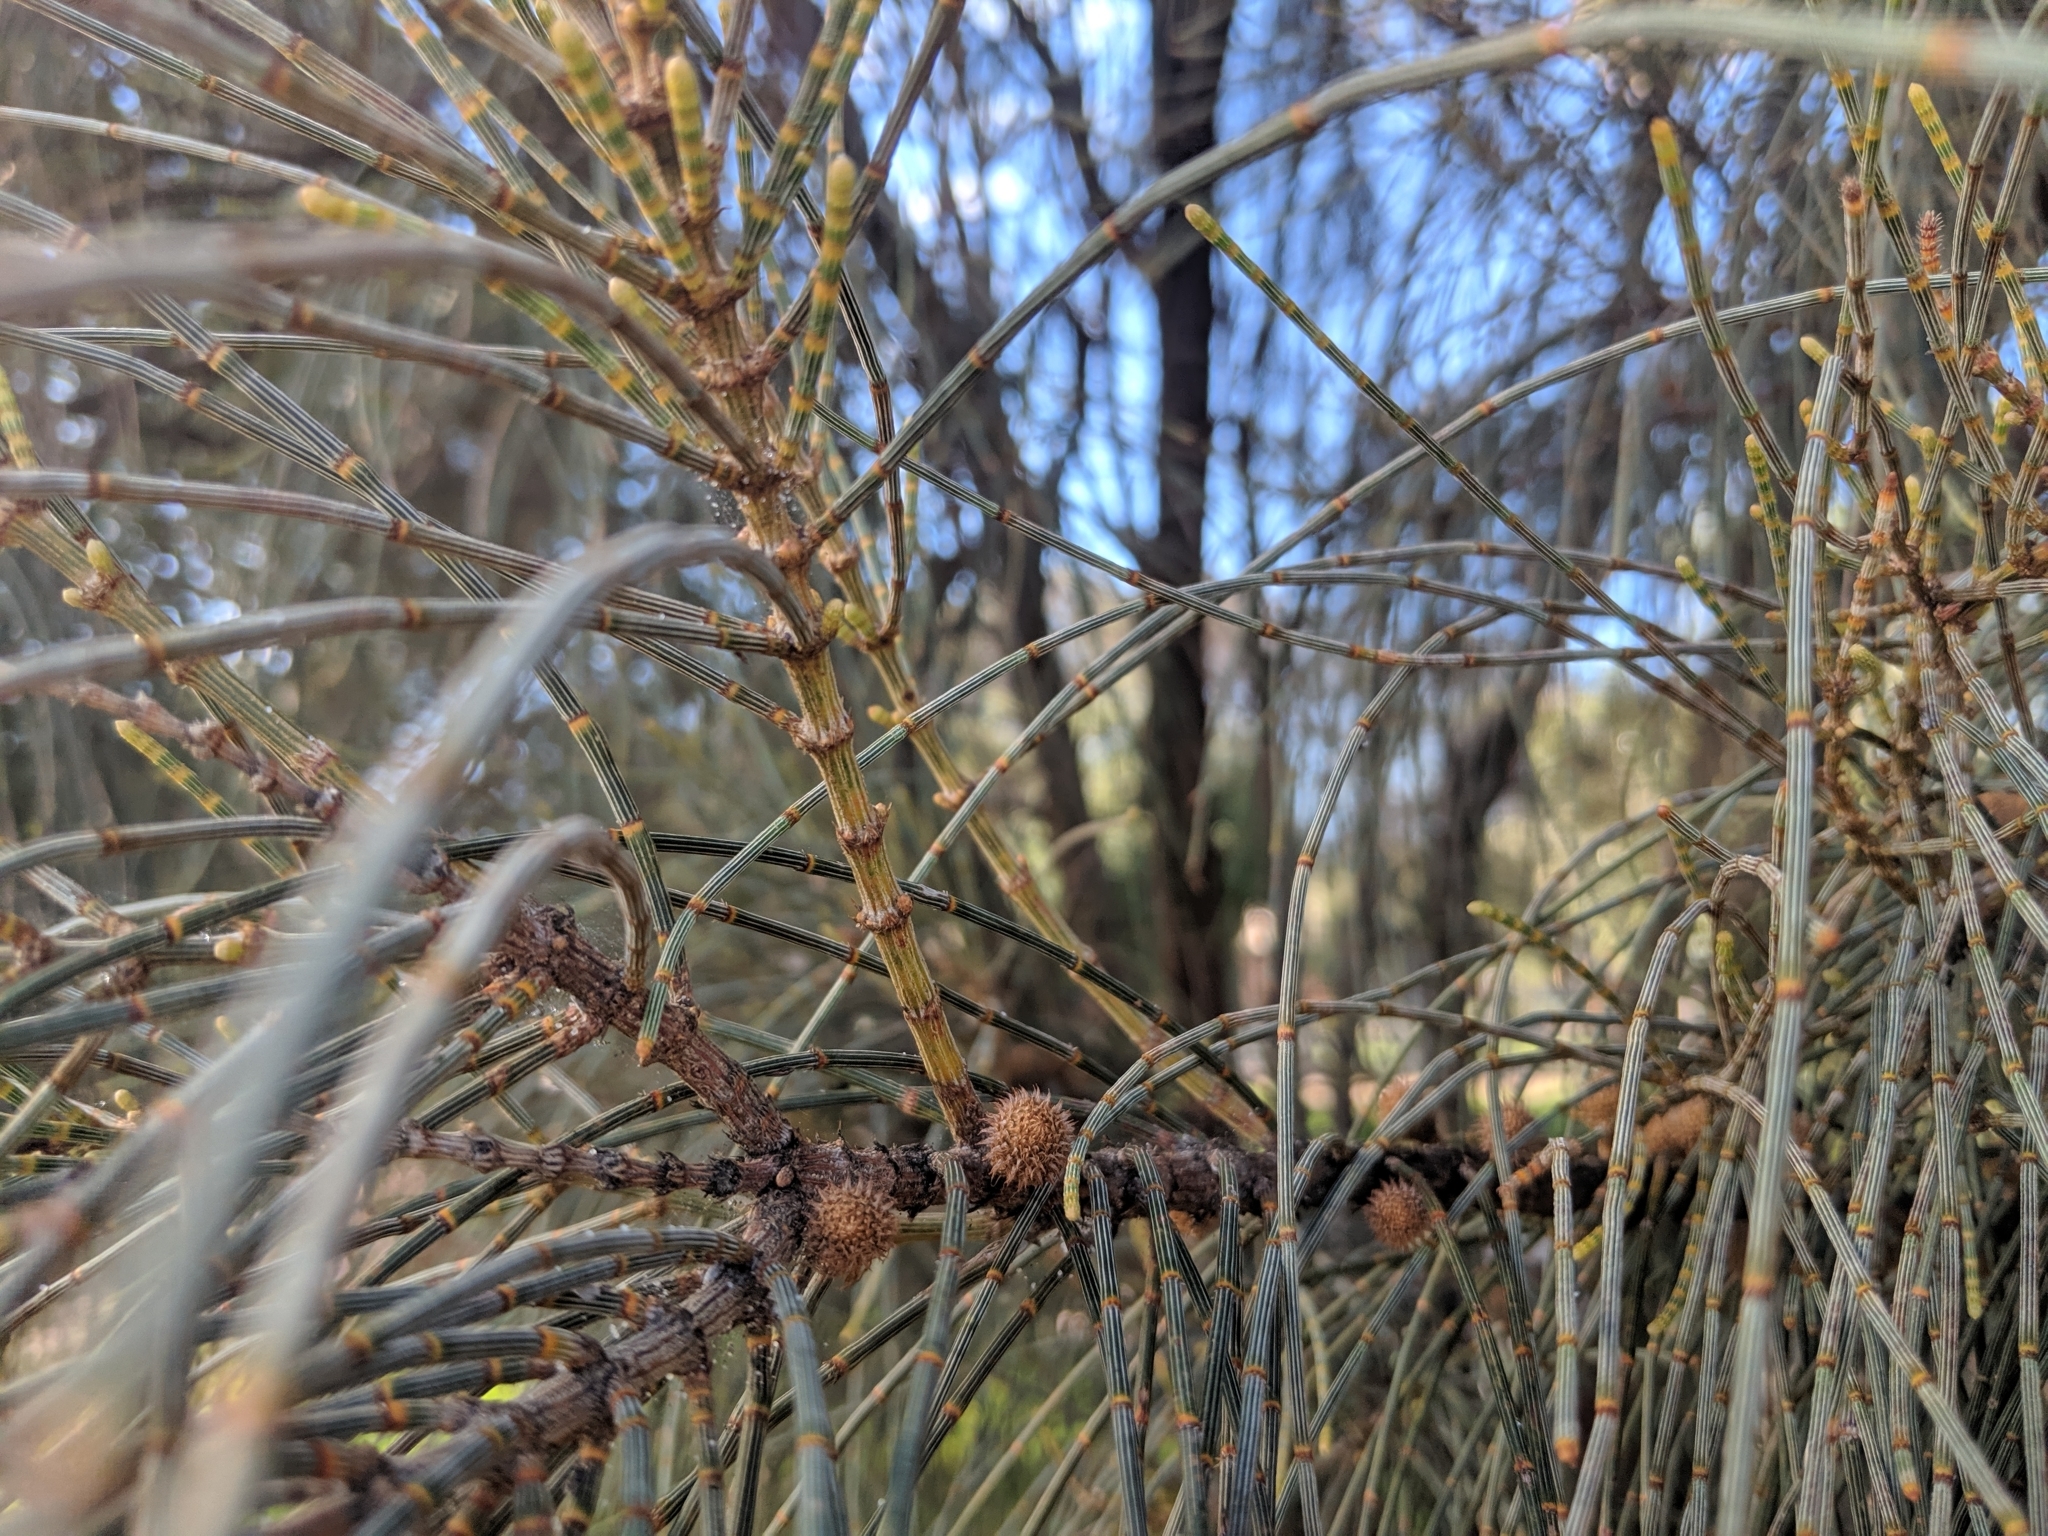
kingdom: Plantae
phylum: Tracheophyta
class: Magnoliopsida
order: Fagales
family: Casuarinaceae
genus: Allocasuarina
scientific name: Allocasuarina verticillata
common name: Drooping she-oak
